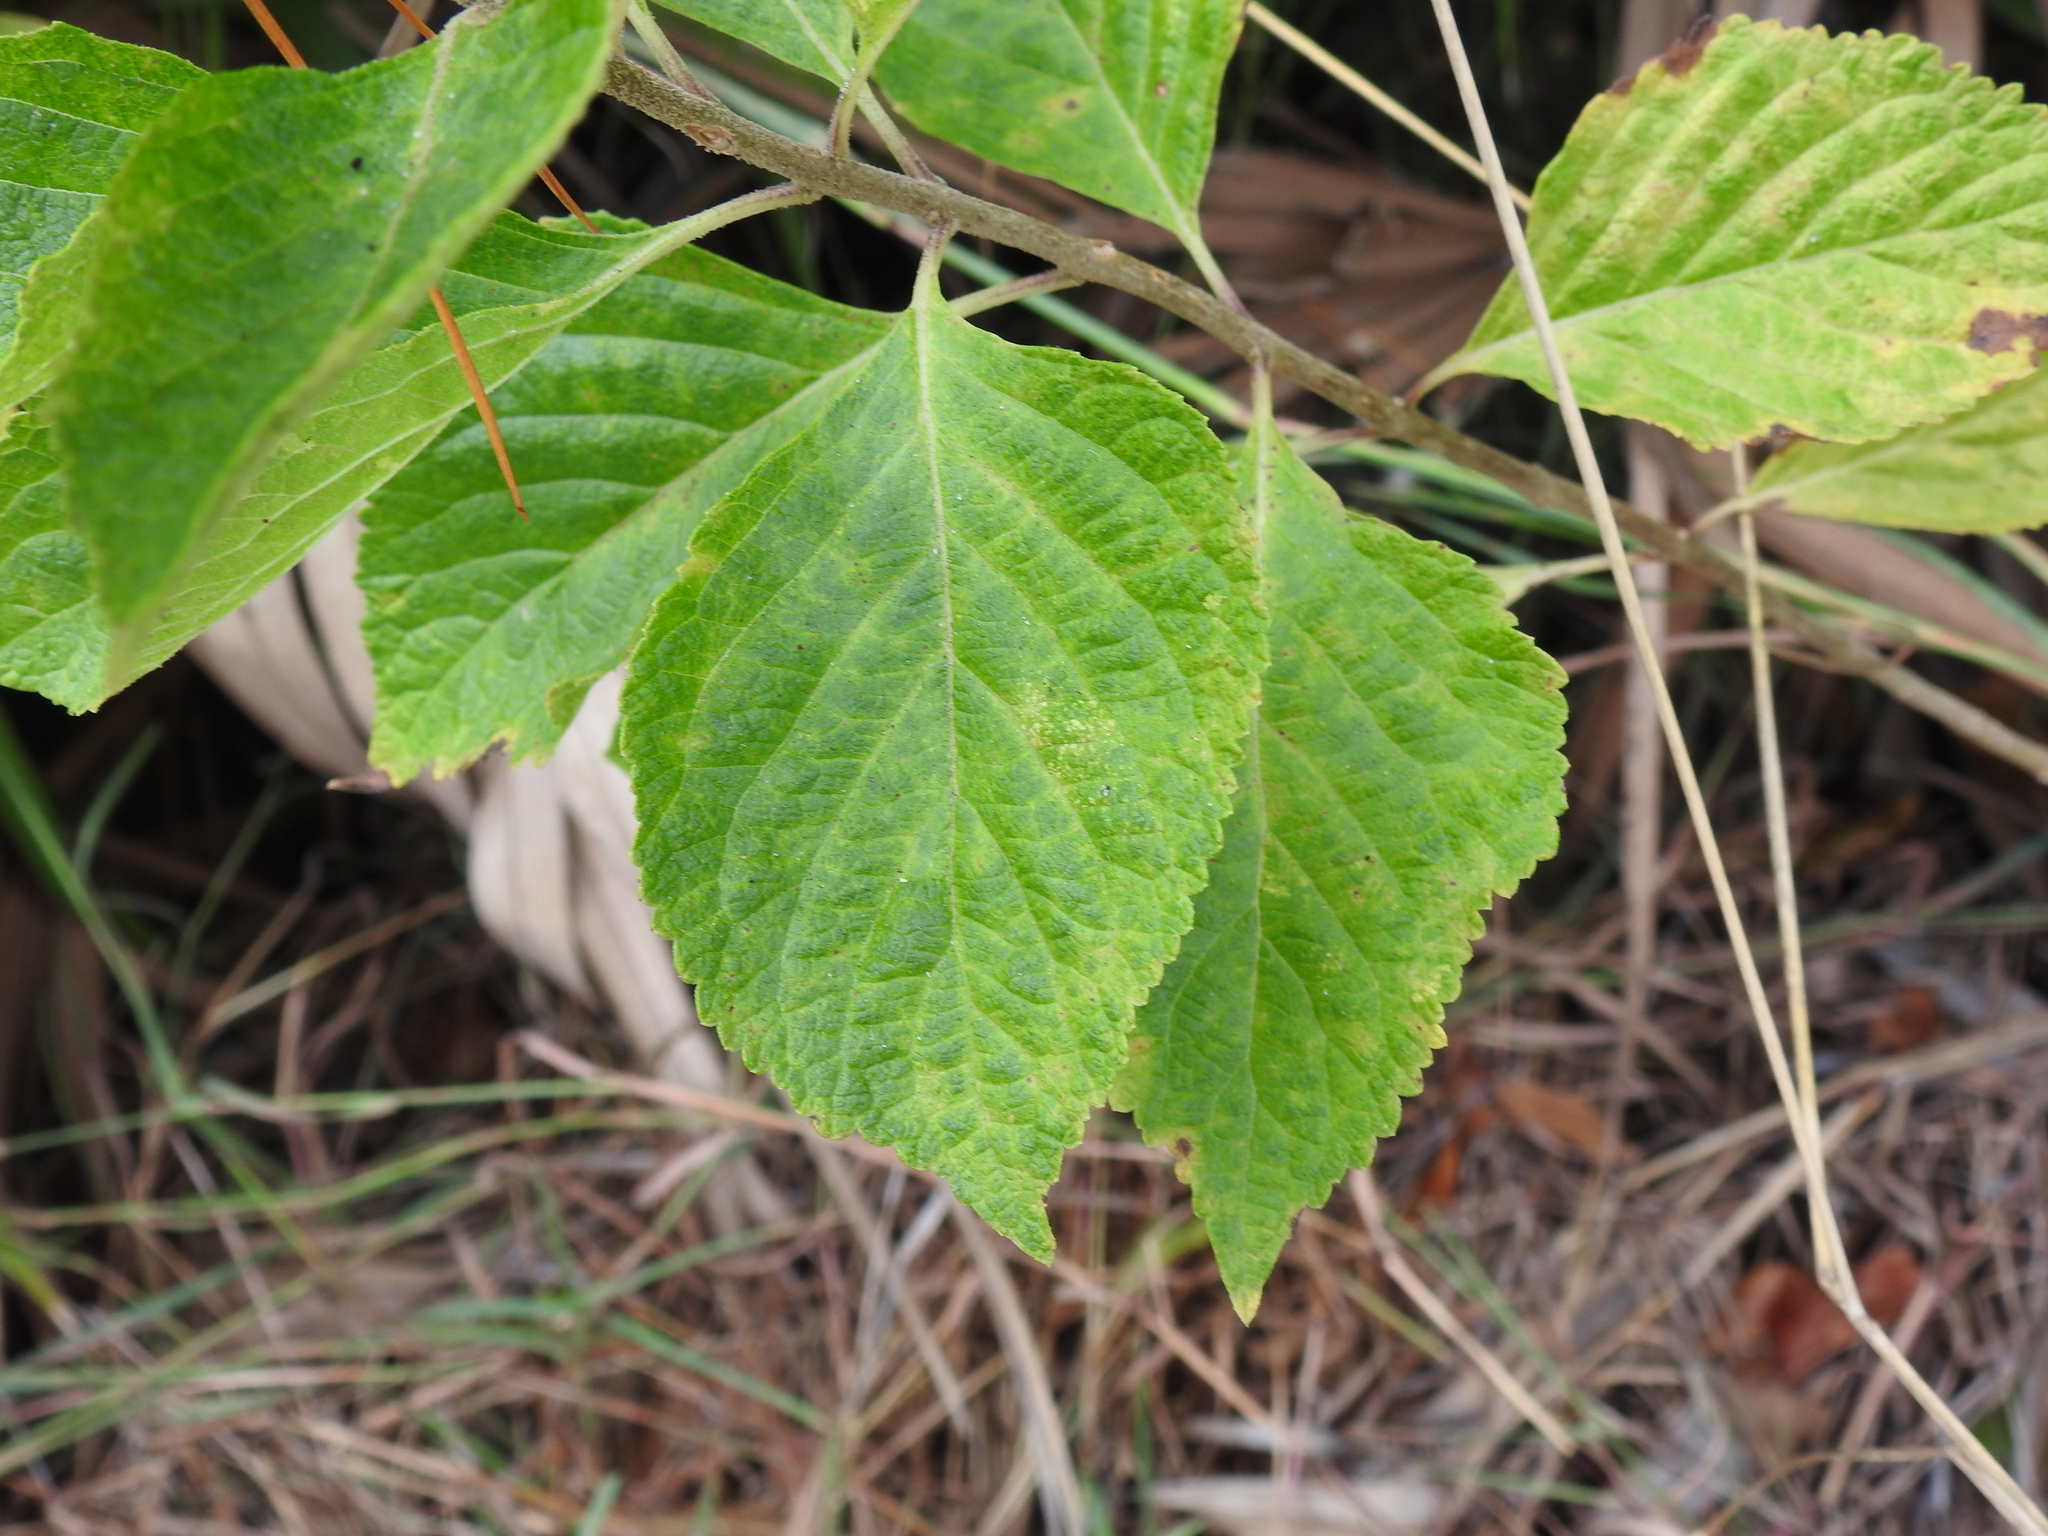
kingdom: Plantae
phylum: Tracheophyta
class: Magnoliopsida
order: Lamiales
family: Lamiaceae
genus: Callicarpa
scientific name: Callicarpa americana
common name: American beautyberry
